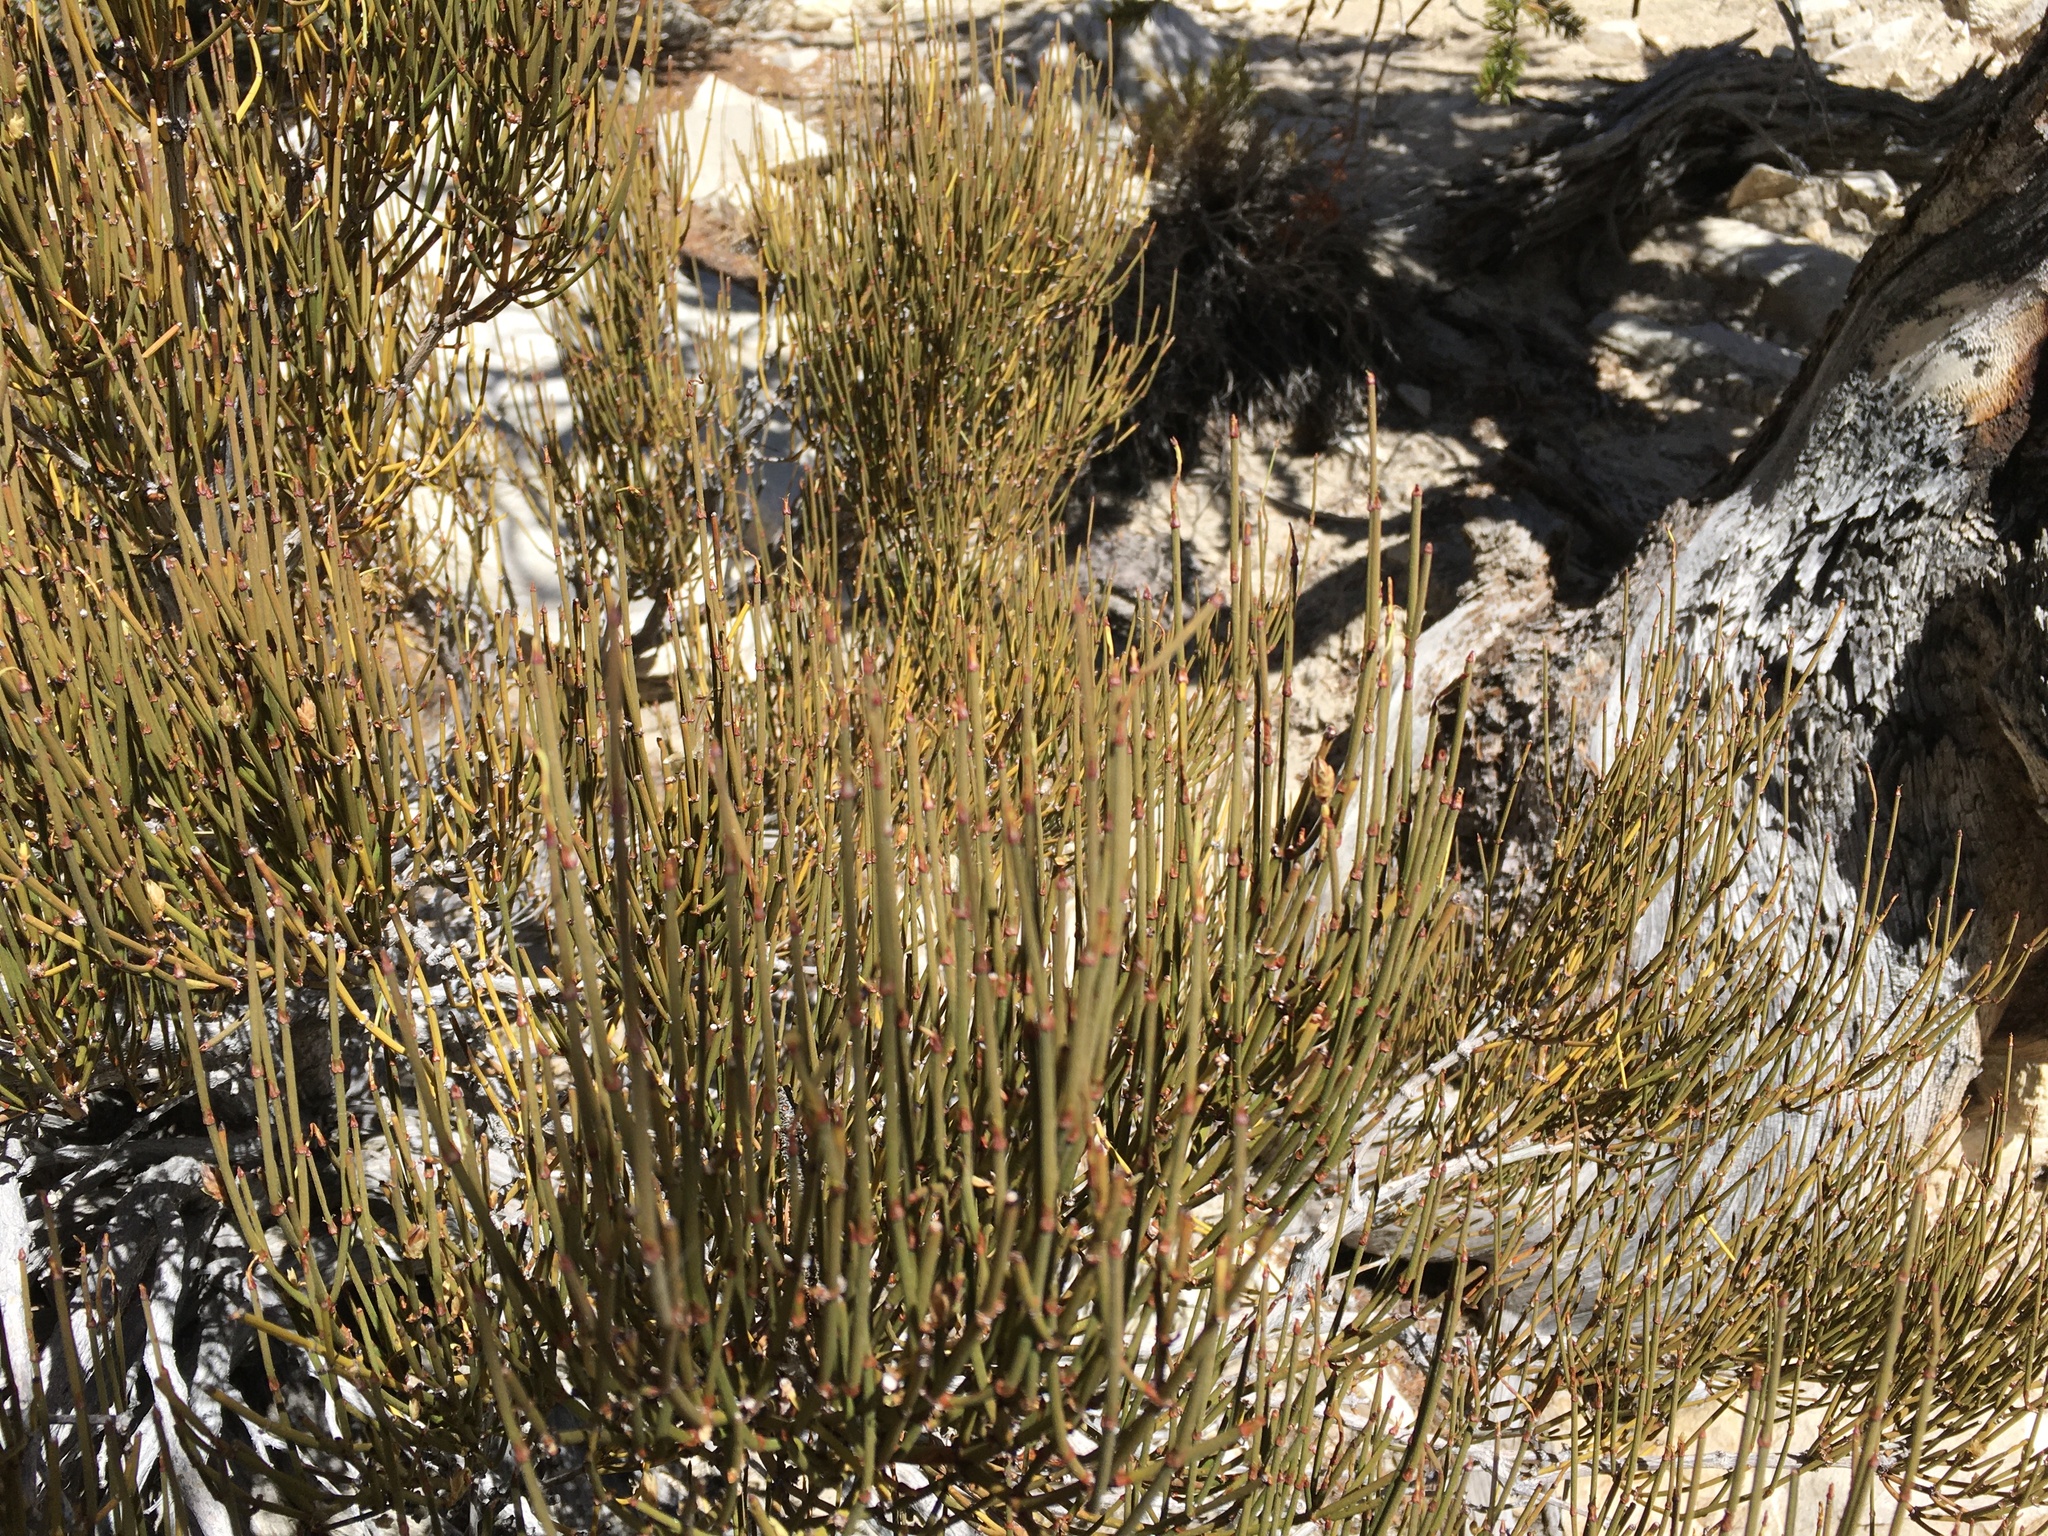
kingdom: Plantae
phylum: Tracheophyta
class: Gnetopsida
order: Ephedrales
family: Ephedraceae
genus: Ephedra
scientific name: Ephedra viridis
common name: Green ephedra
